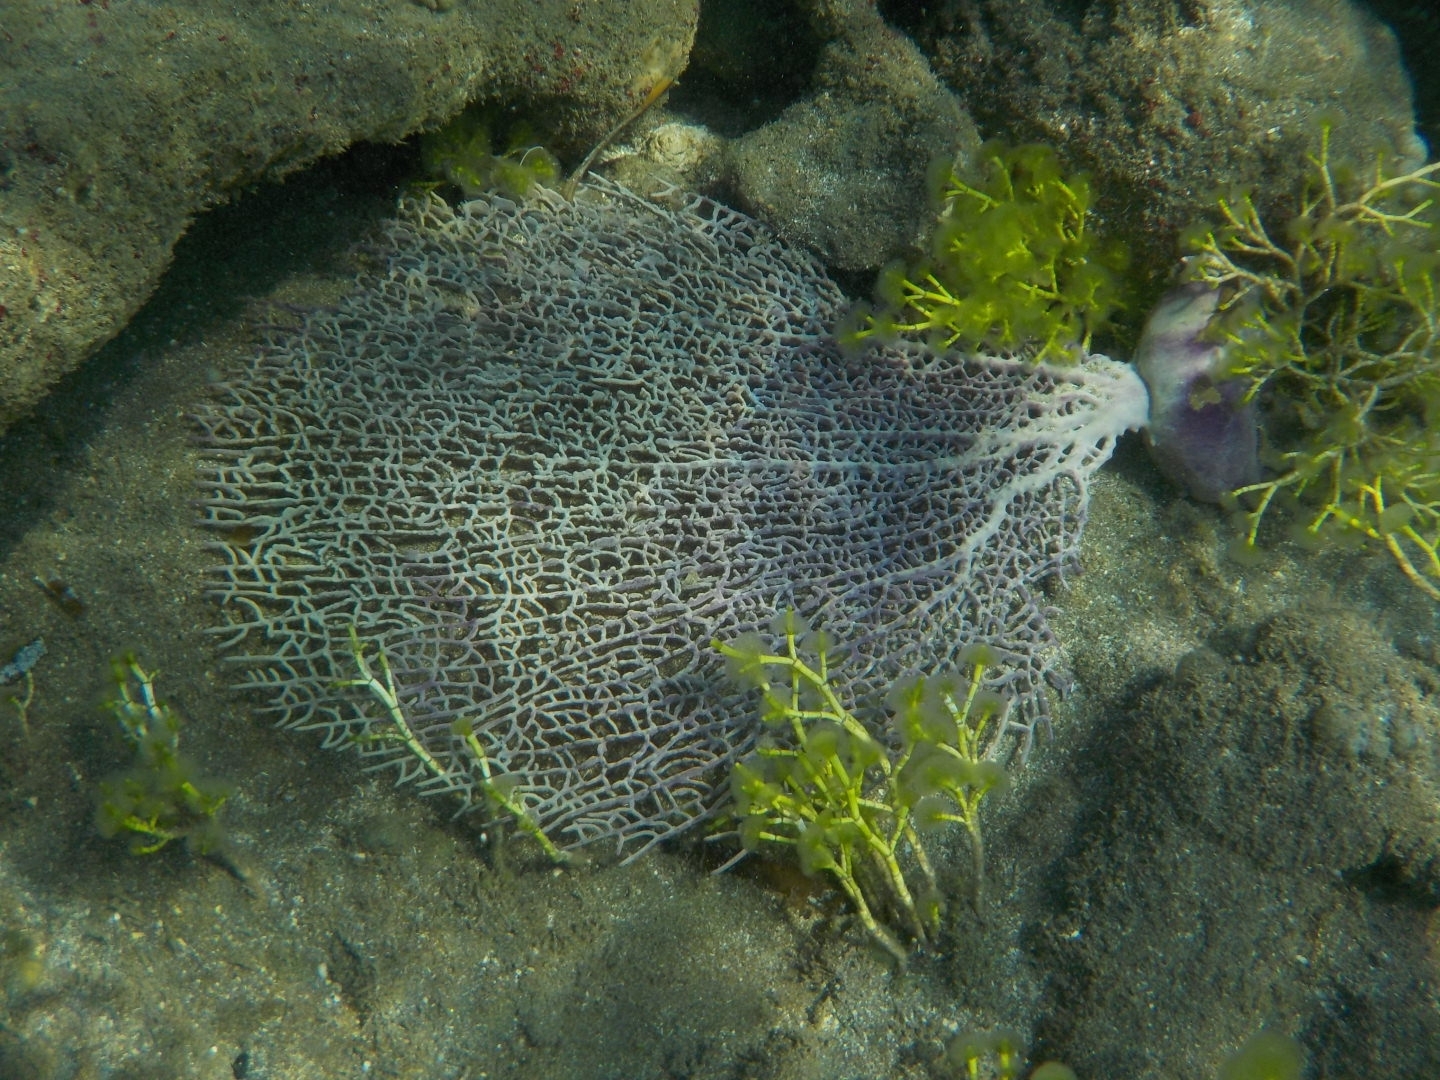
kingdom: Animalia
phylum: Cnidaria
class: Anthozoa
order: Malacalcyonacea
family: Gorgoniidae
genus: Gorgonia
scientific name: Gorgonia ventalina
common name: Common sea fan
